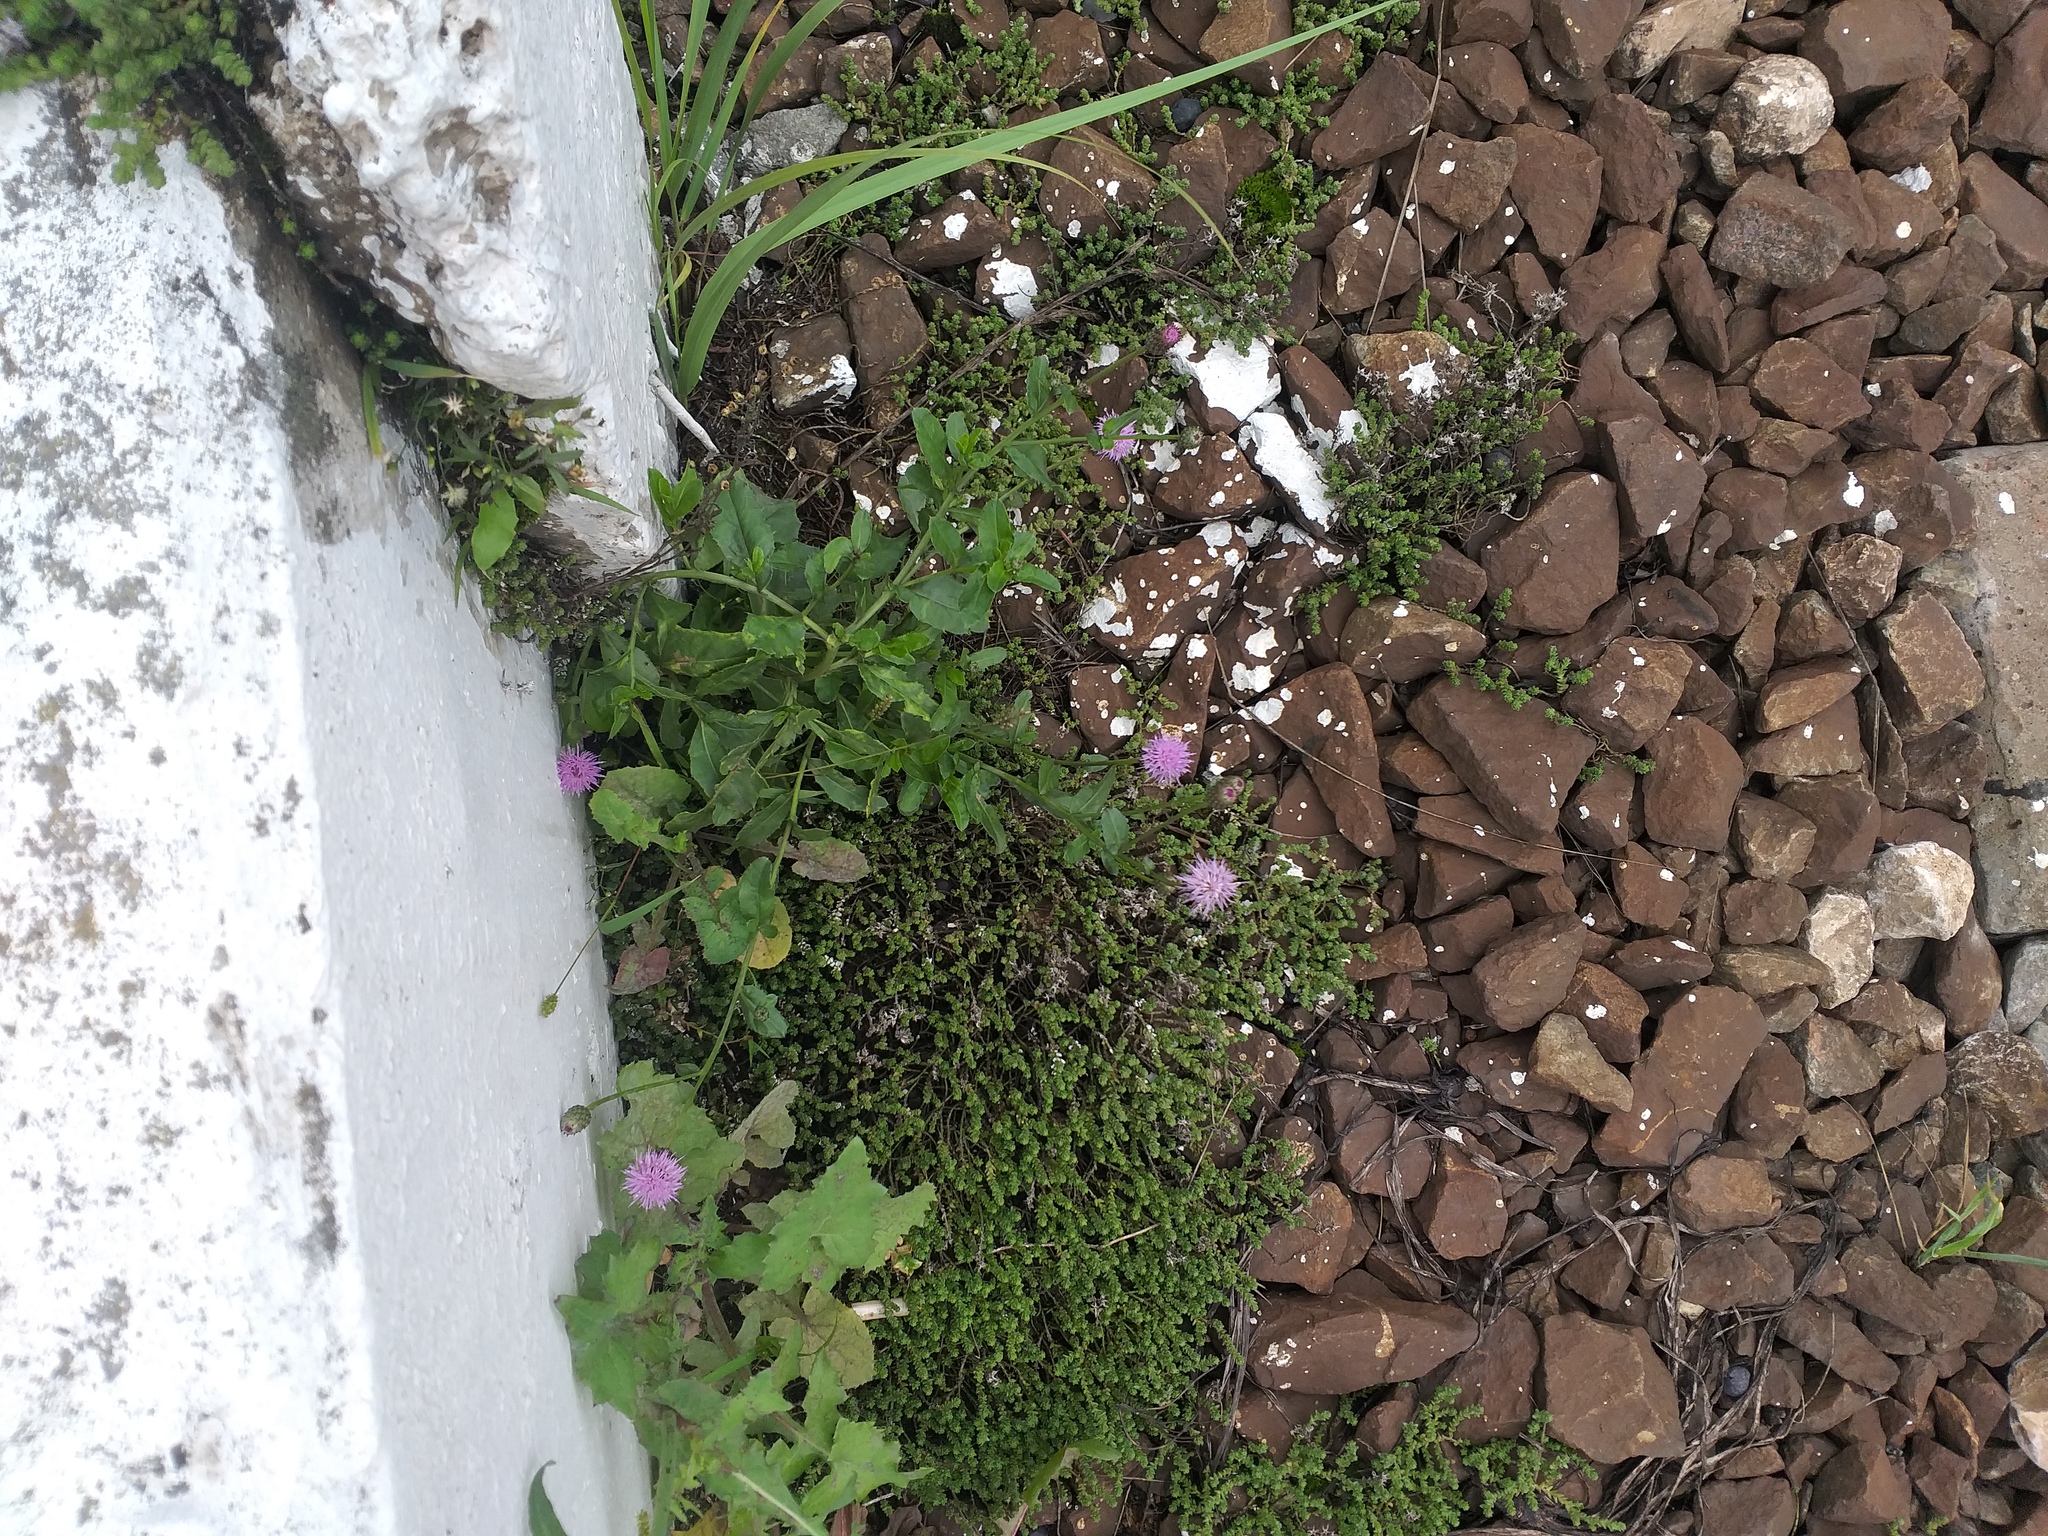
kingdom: Plantae
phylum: Tracheophyta
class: Magnoliopsida
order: Asterales
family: Asteraceae
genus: Cirsium
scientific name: Cirsium arvense
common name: Creeping thistle
